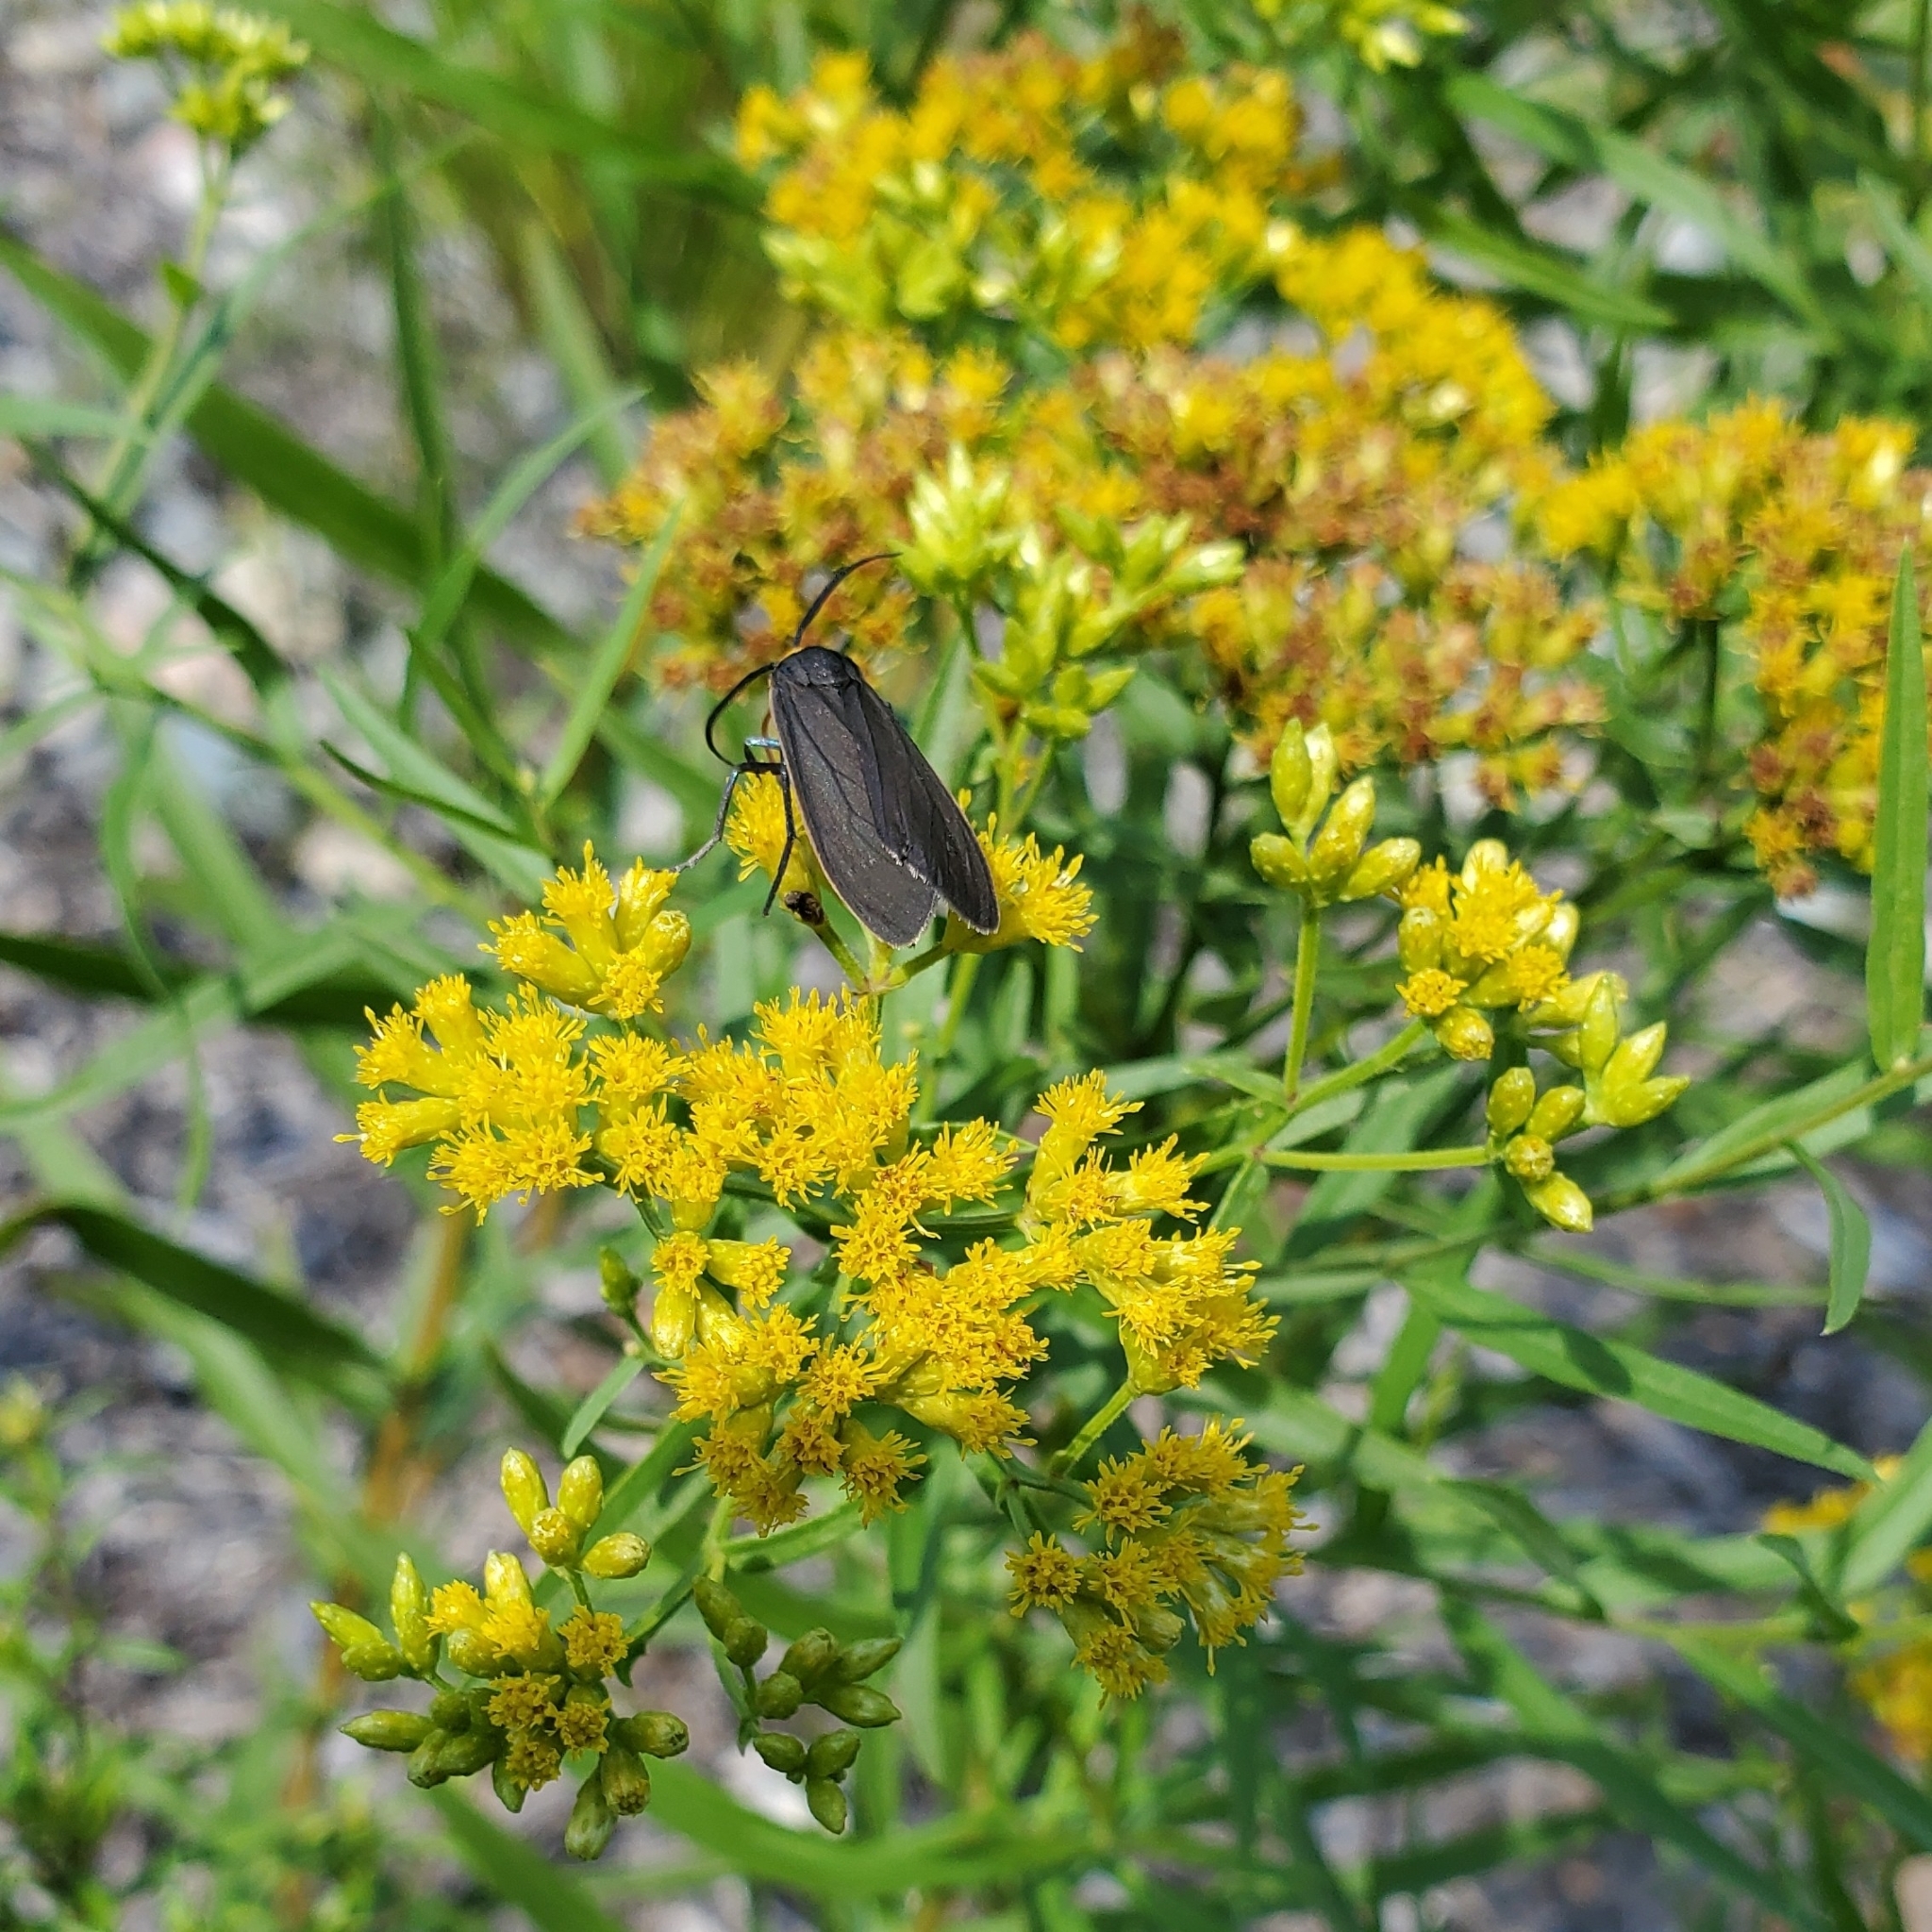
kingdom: Animalia
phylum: Arthropoda
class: Insecta
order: Lepidoptera
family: Erebidae
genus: Cisseps
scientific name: Cisseps fulvicollis
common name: Yellow-collared scape moth
